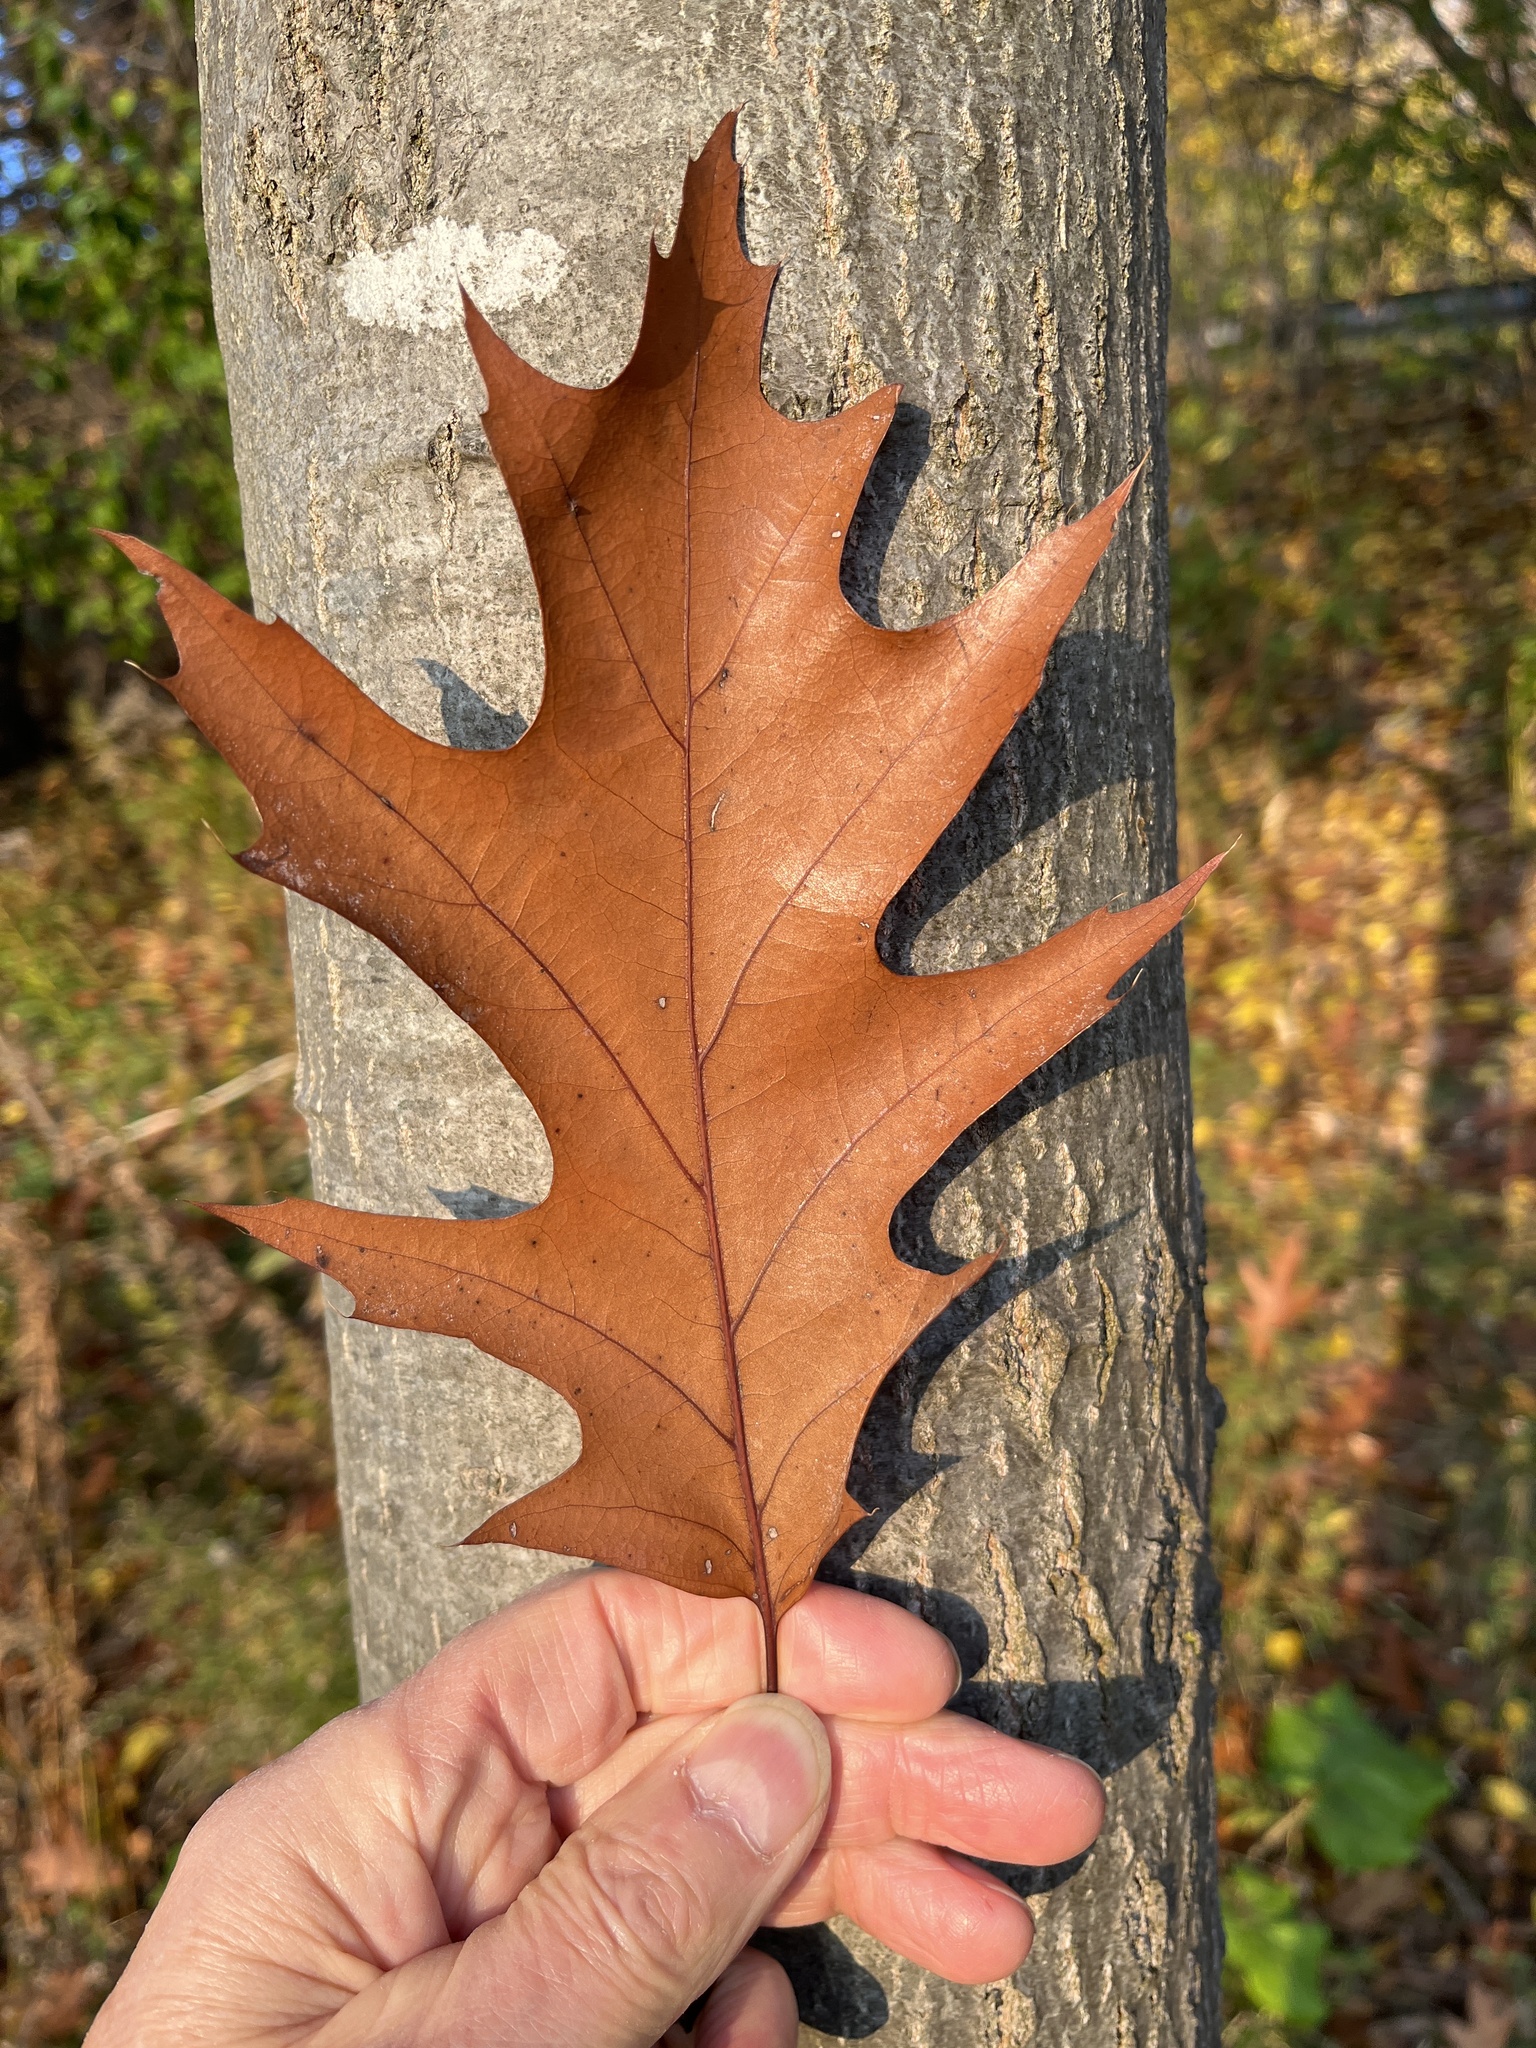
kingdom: Plantae
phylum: Tracheophyta
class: Magnoliopsida
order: Fagales
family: Fagaceae
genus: Quercus
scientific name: Quercus rubra
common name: Red oak
